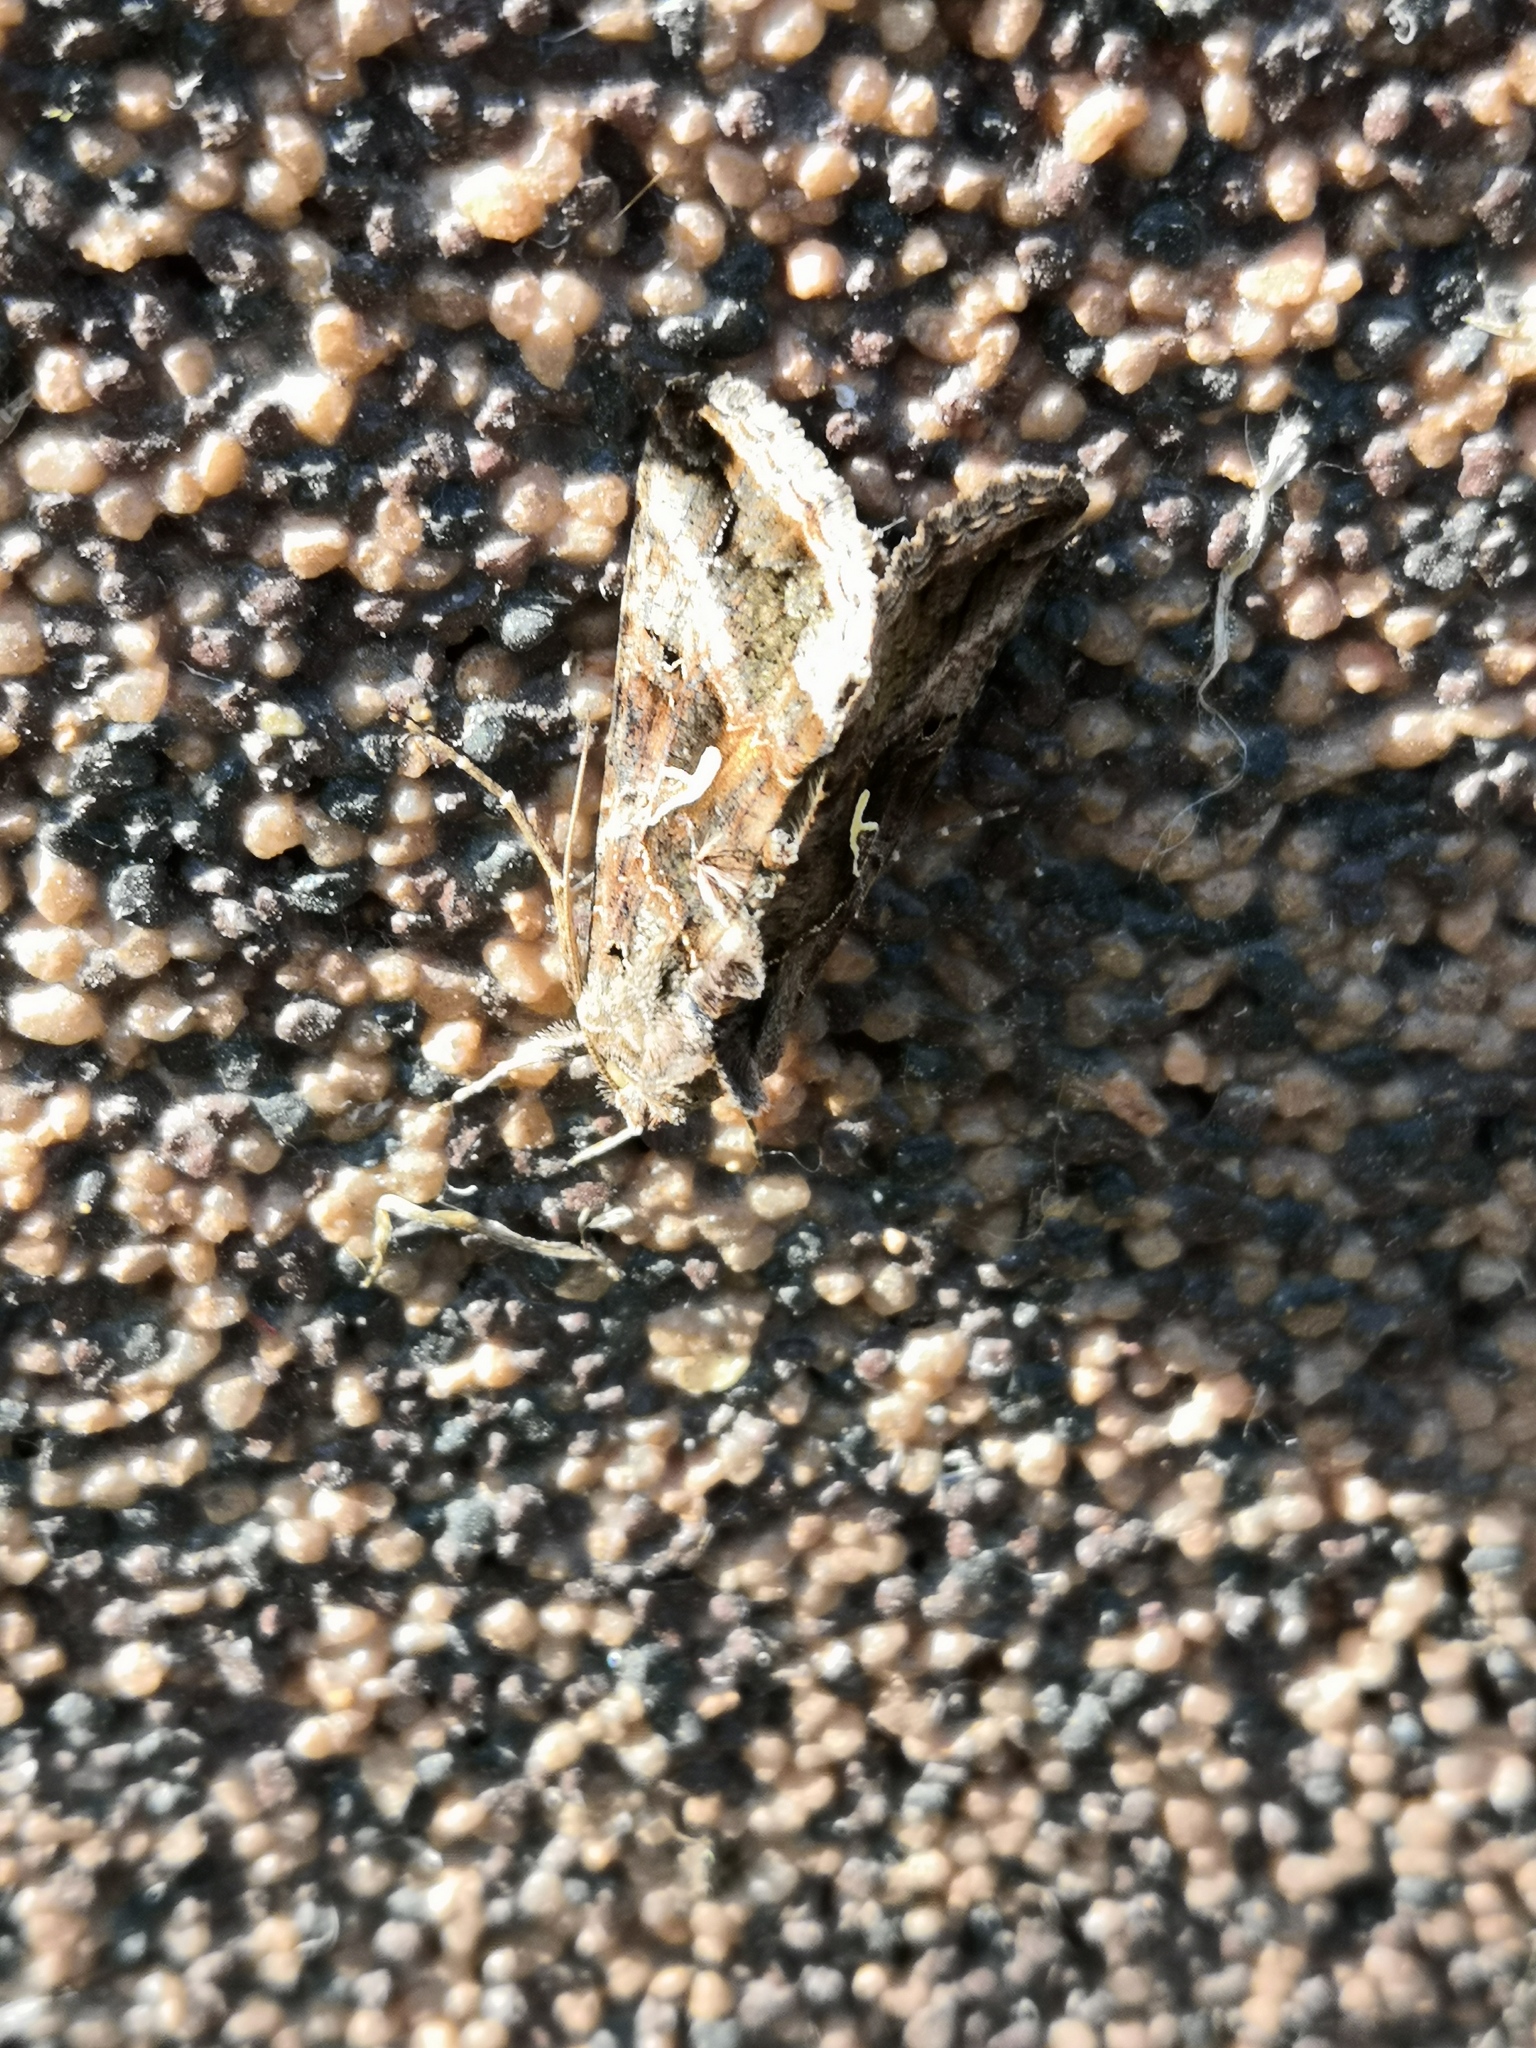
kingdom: Animalia
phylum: Arthropoda
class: Insecta
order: Lepidoptera
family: Noctuidae
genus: Autographa
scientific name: Autographa gamma
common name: Silver y
